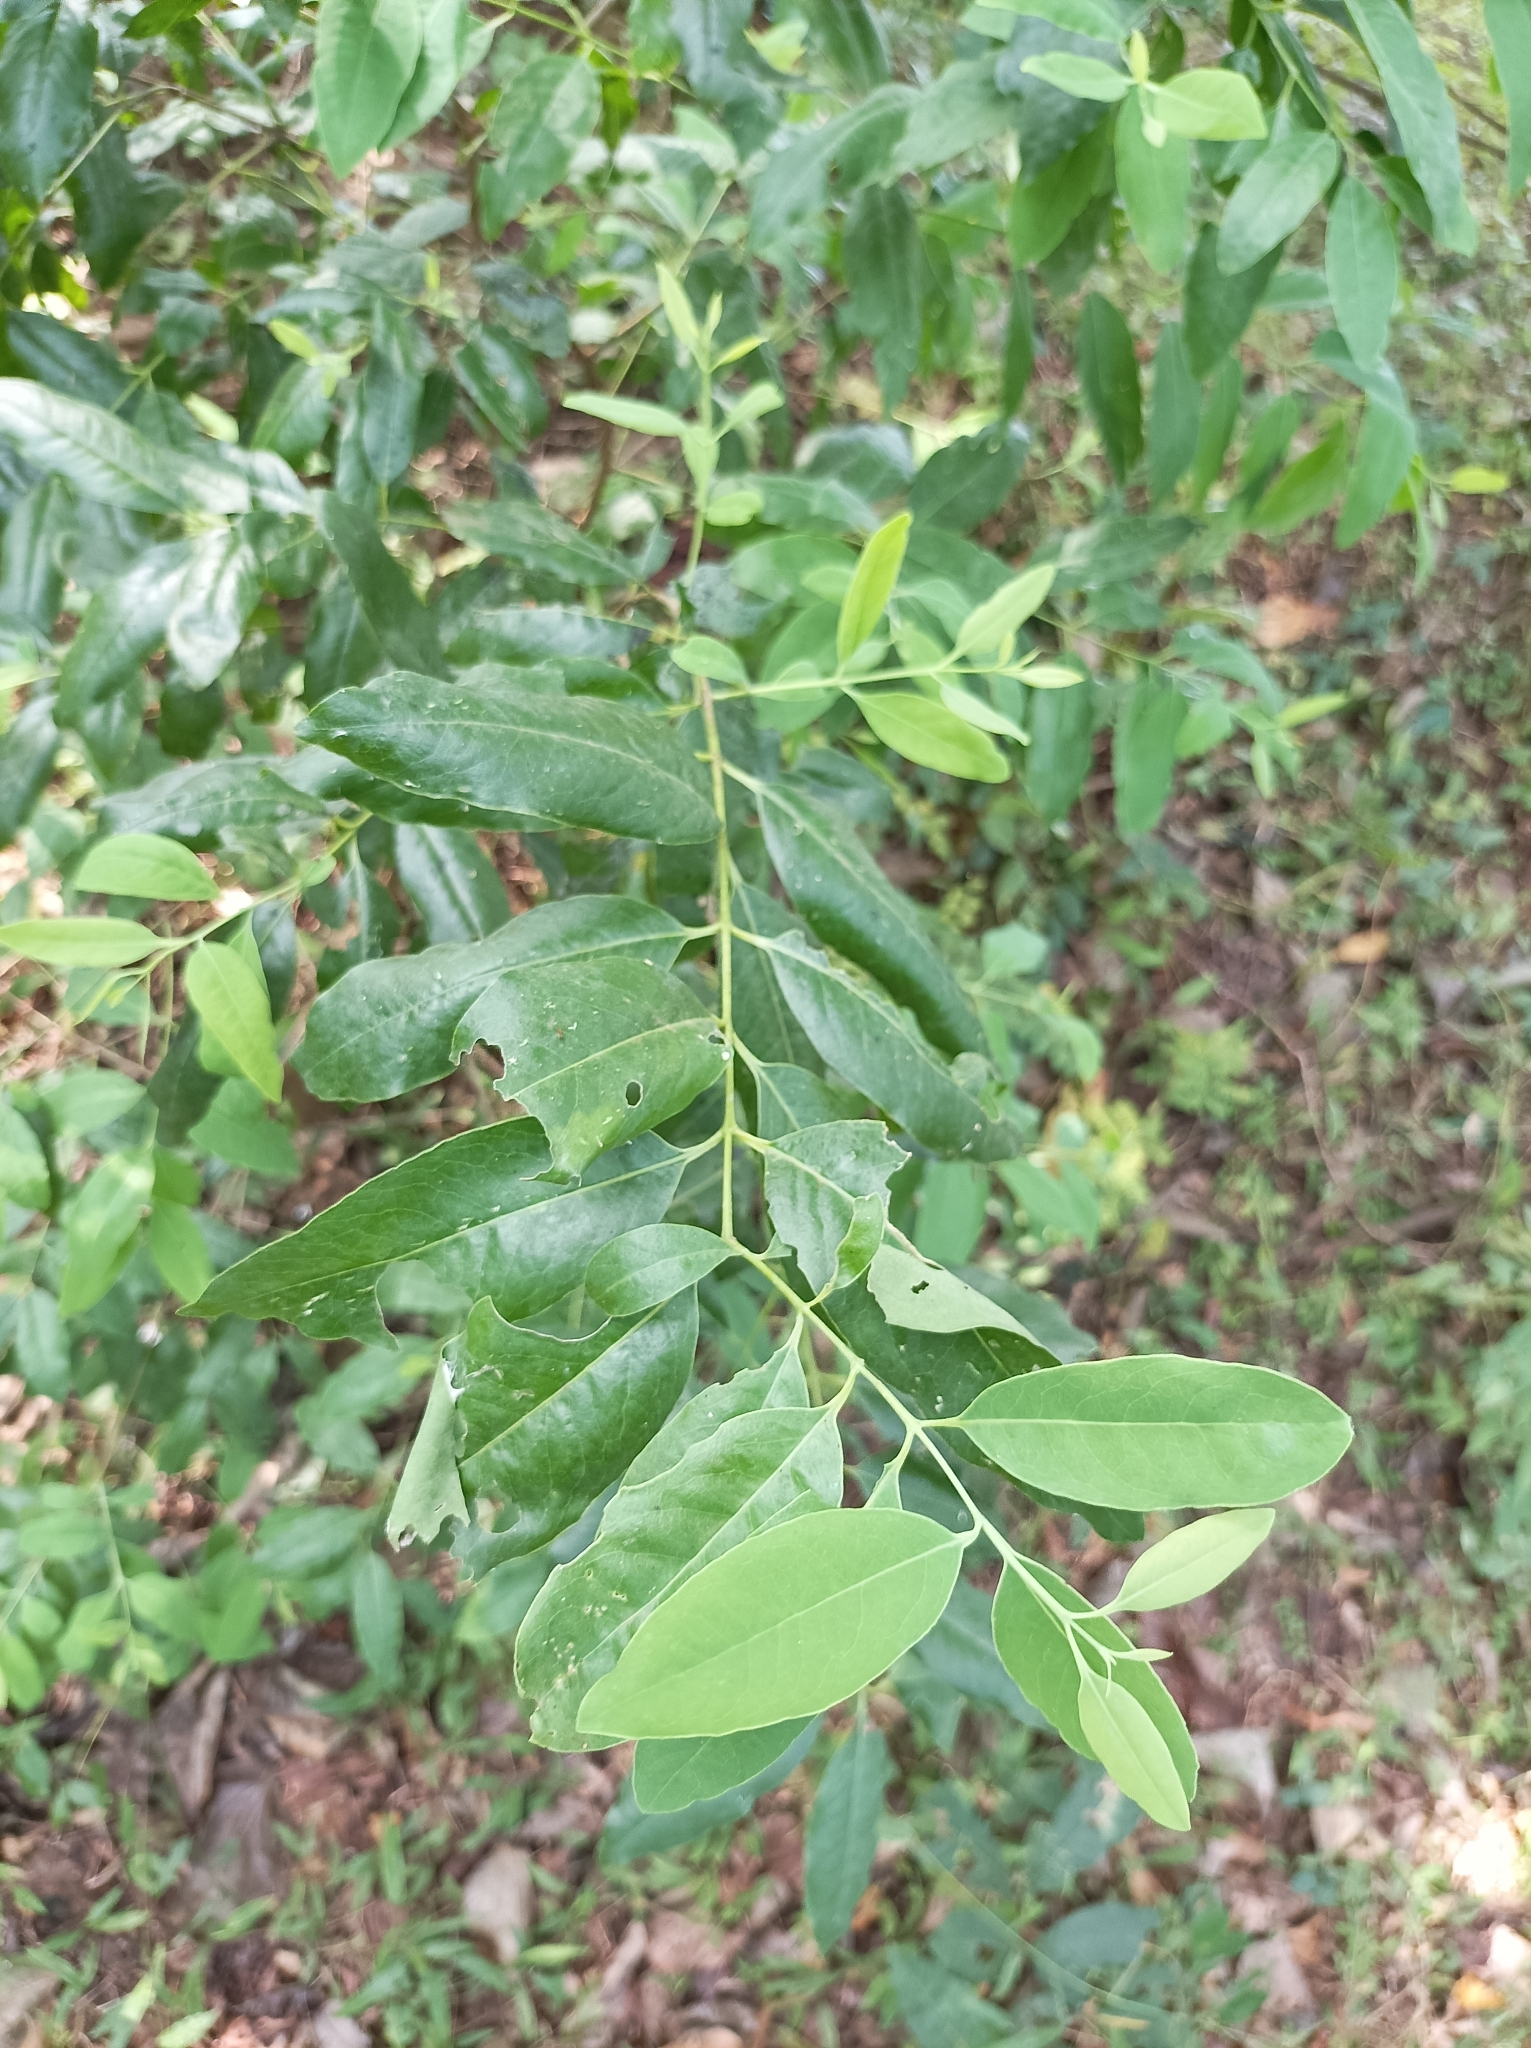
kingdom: Plantae
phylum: Tracheophyta
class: Magnoliopsida
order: Santalales
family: Santalaceae
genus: Santalum
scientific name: Santalum album
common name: Indian sandalwood
